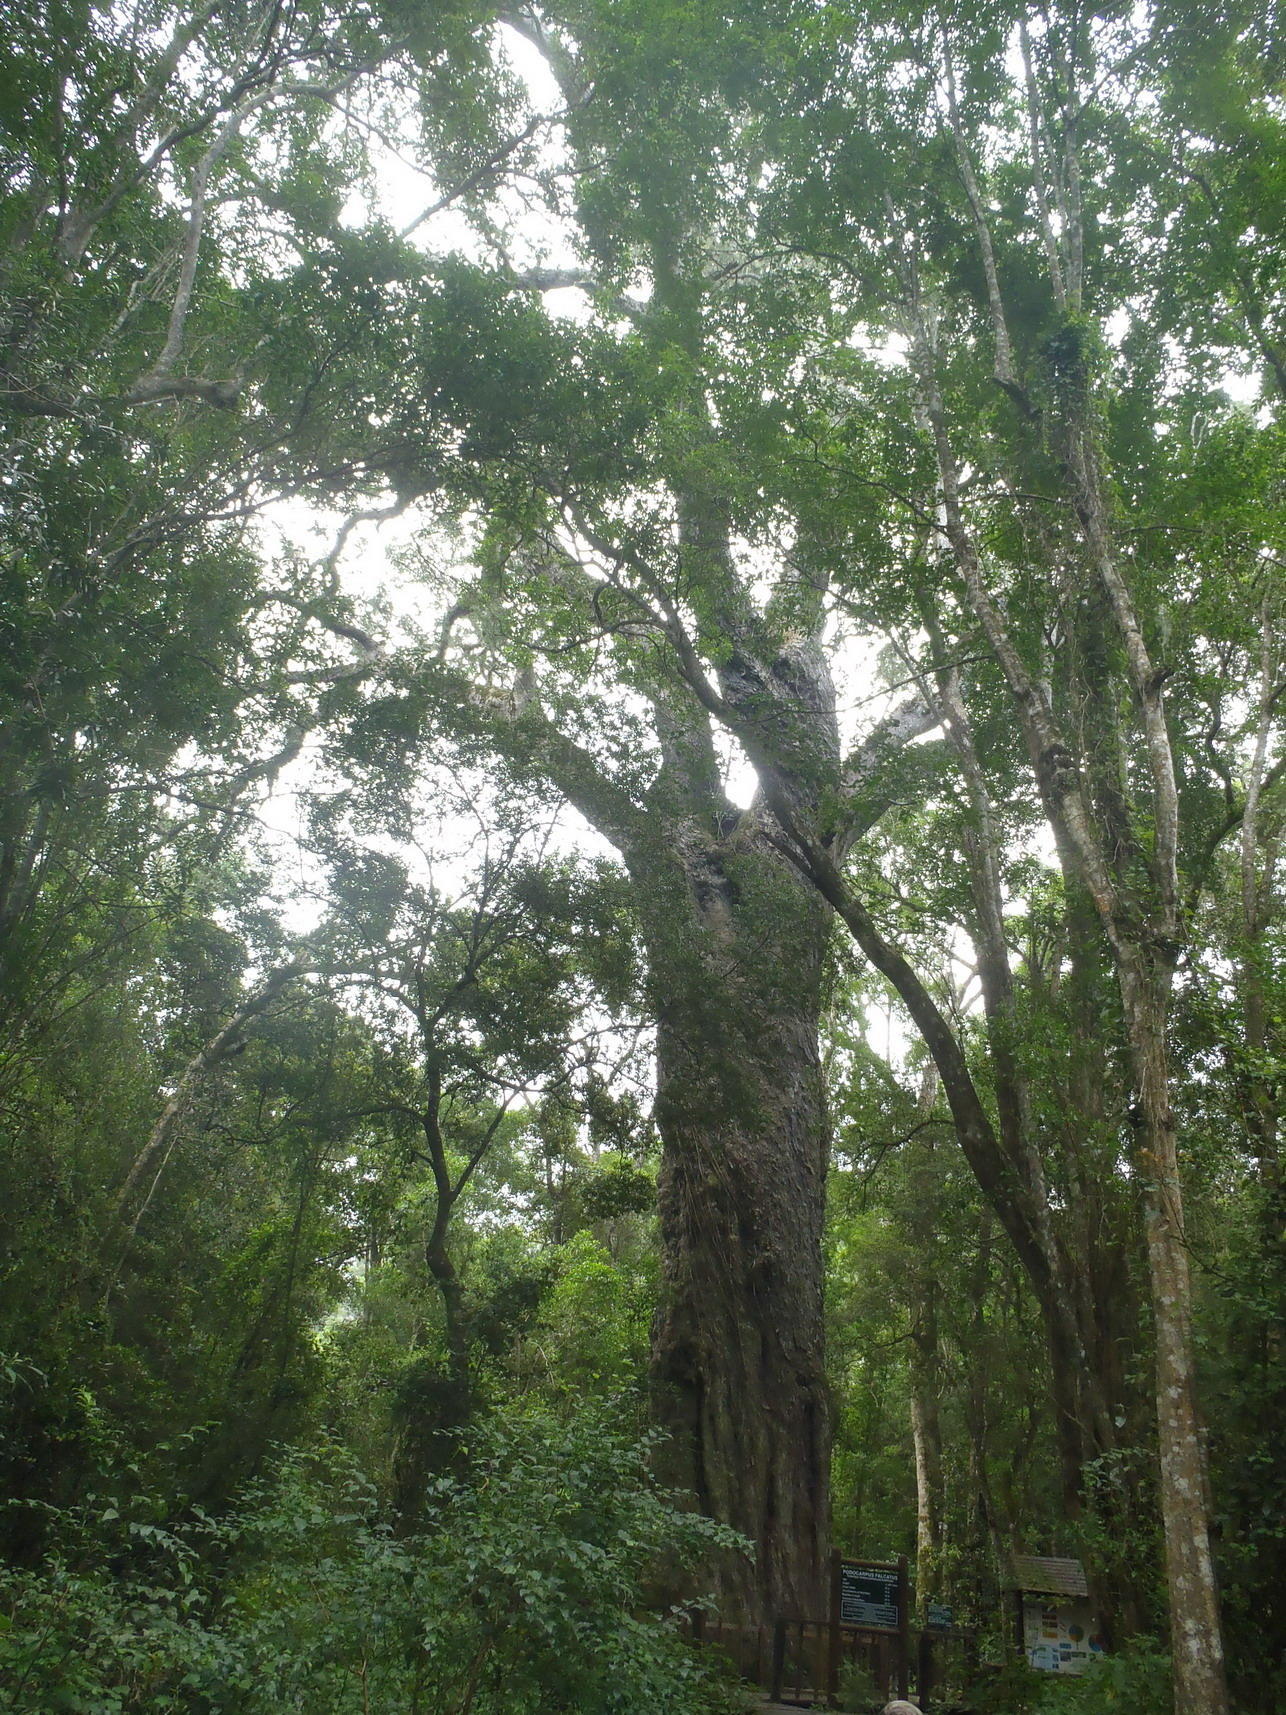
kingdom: Plantae
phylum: Tracheophyta
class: Pinopsida
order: Pinales
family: Podocarpaceae
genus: Afrocarpus
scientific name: Afrocarpus falcatus
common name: Bastard yellowwood
